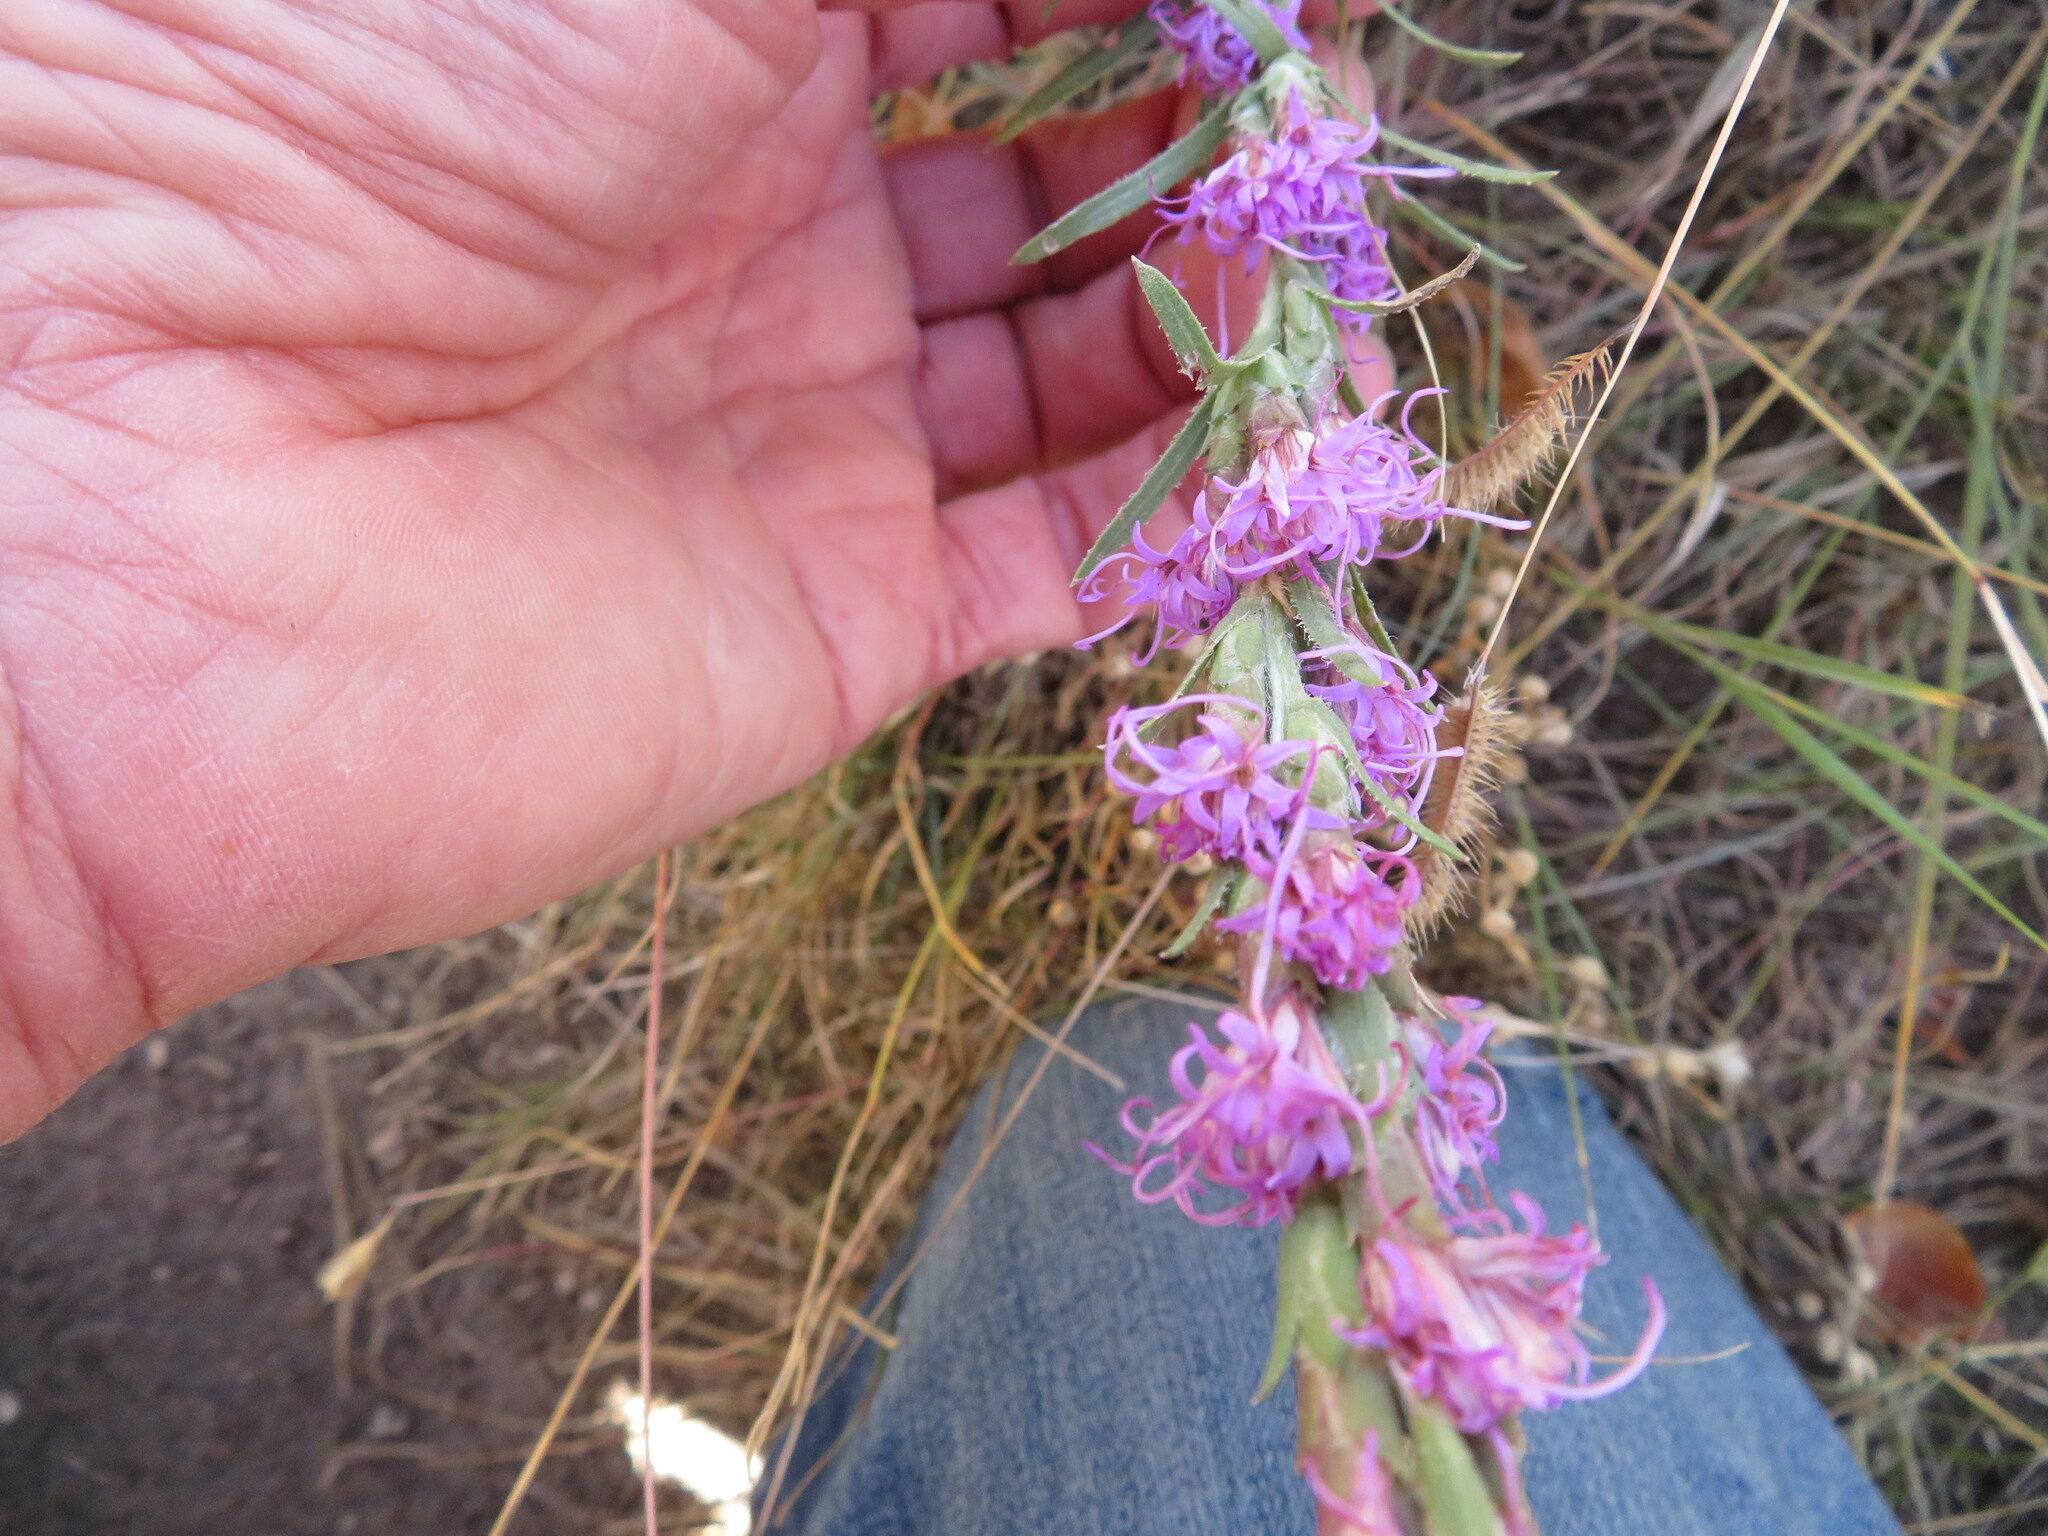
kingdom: Plantae
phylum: Tracheophyta
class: Magnoliopsida
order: Asterales
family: Asteraceae
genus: Liatris
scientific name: Liatris punctata
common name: Dotted gayfeather
